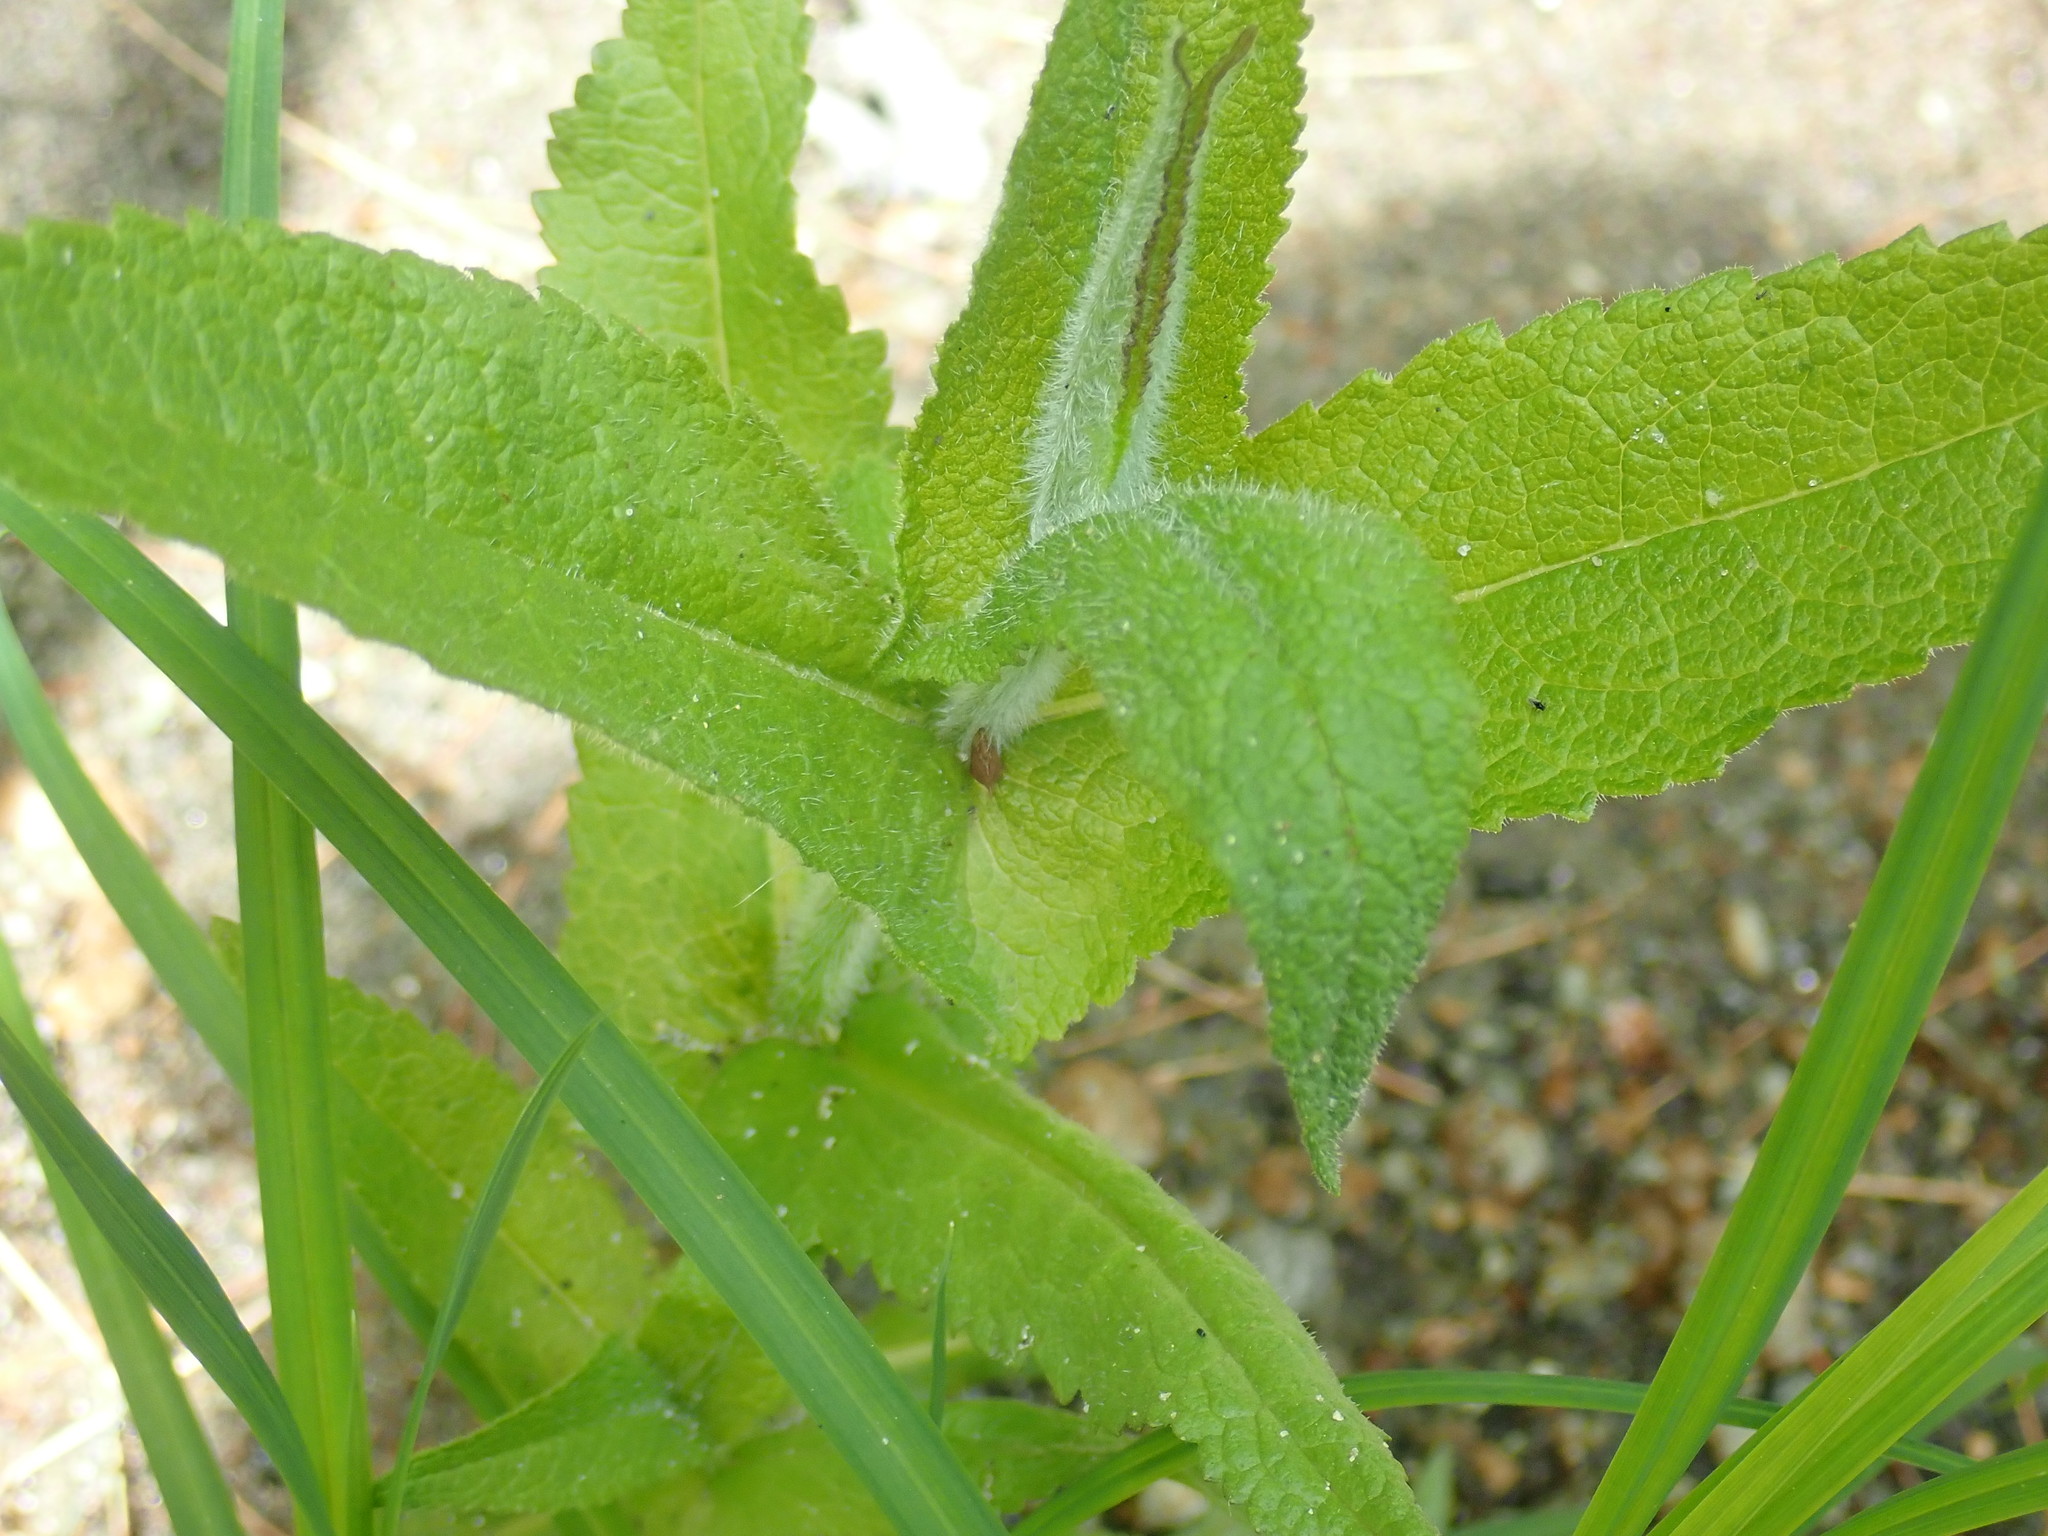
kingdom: Plantae
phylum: Tracheophyta
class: Magnoliopsida
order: Asterales
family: Asteraceae
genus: Eupatorium
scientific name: Eupatorium perfoliatum
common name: Boneset
